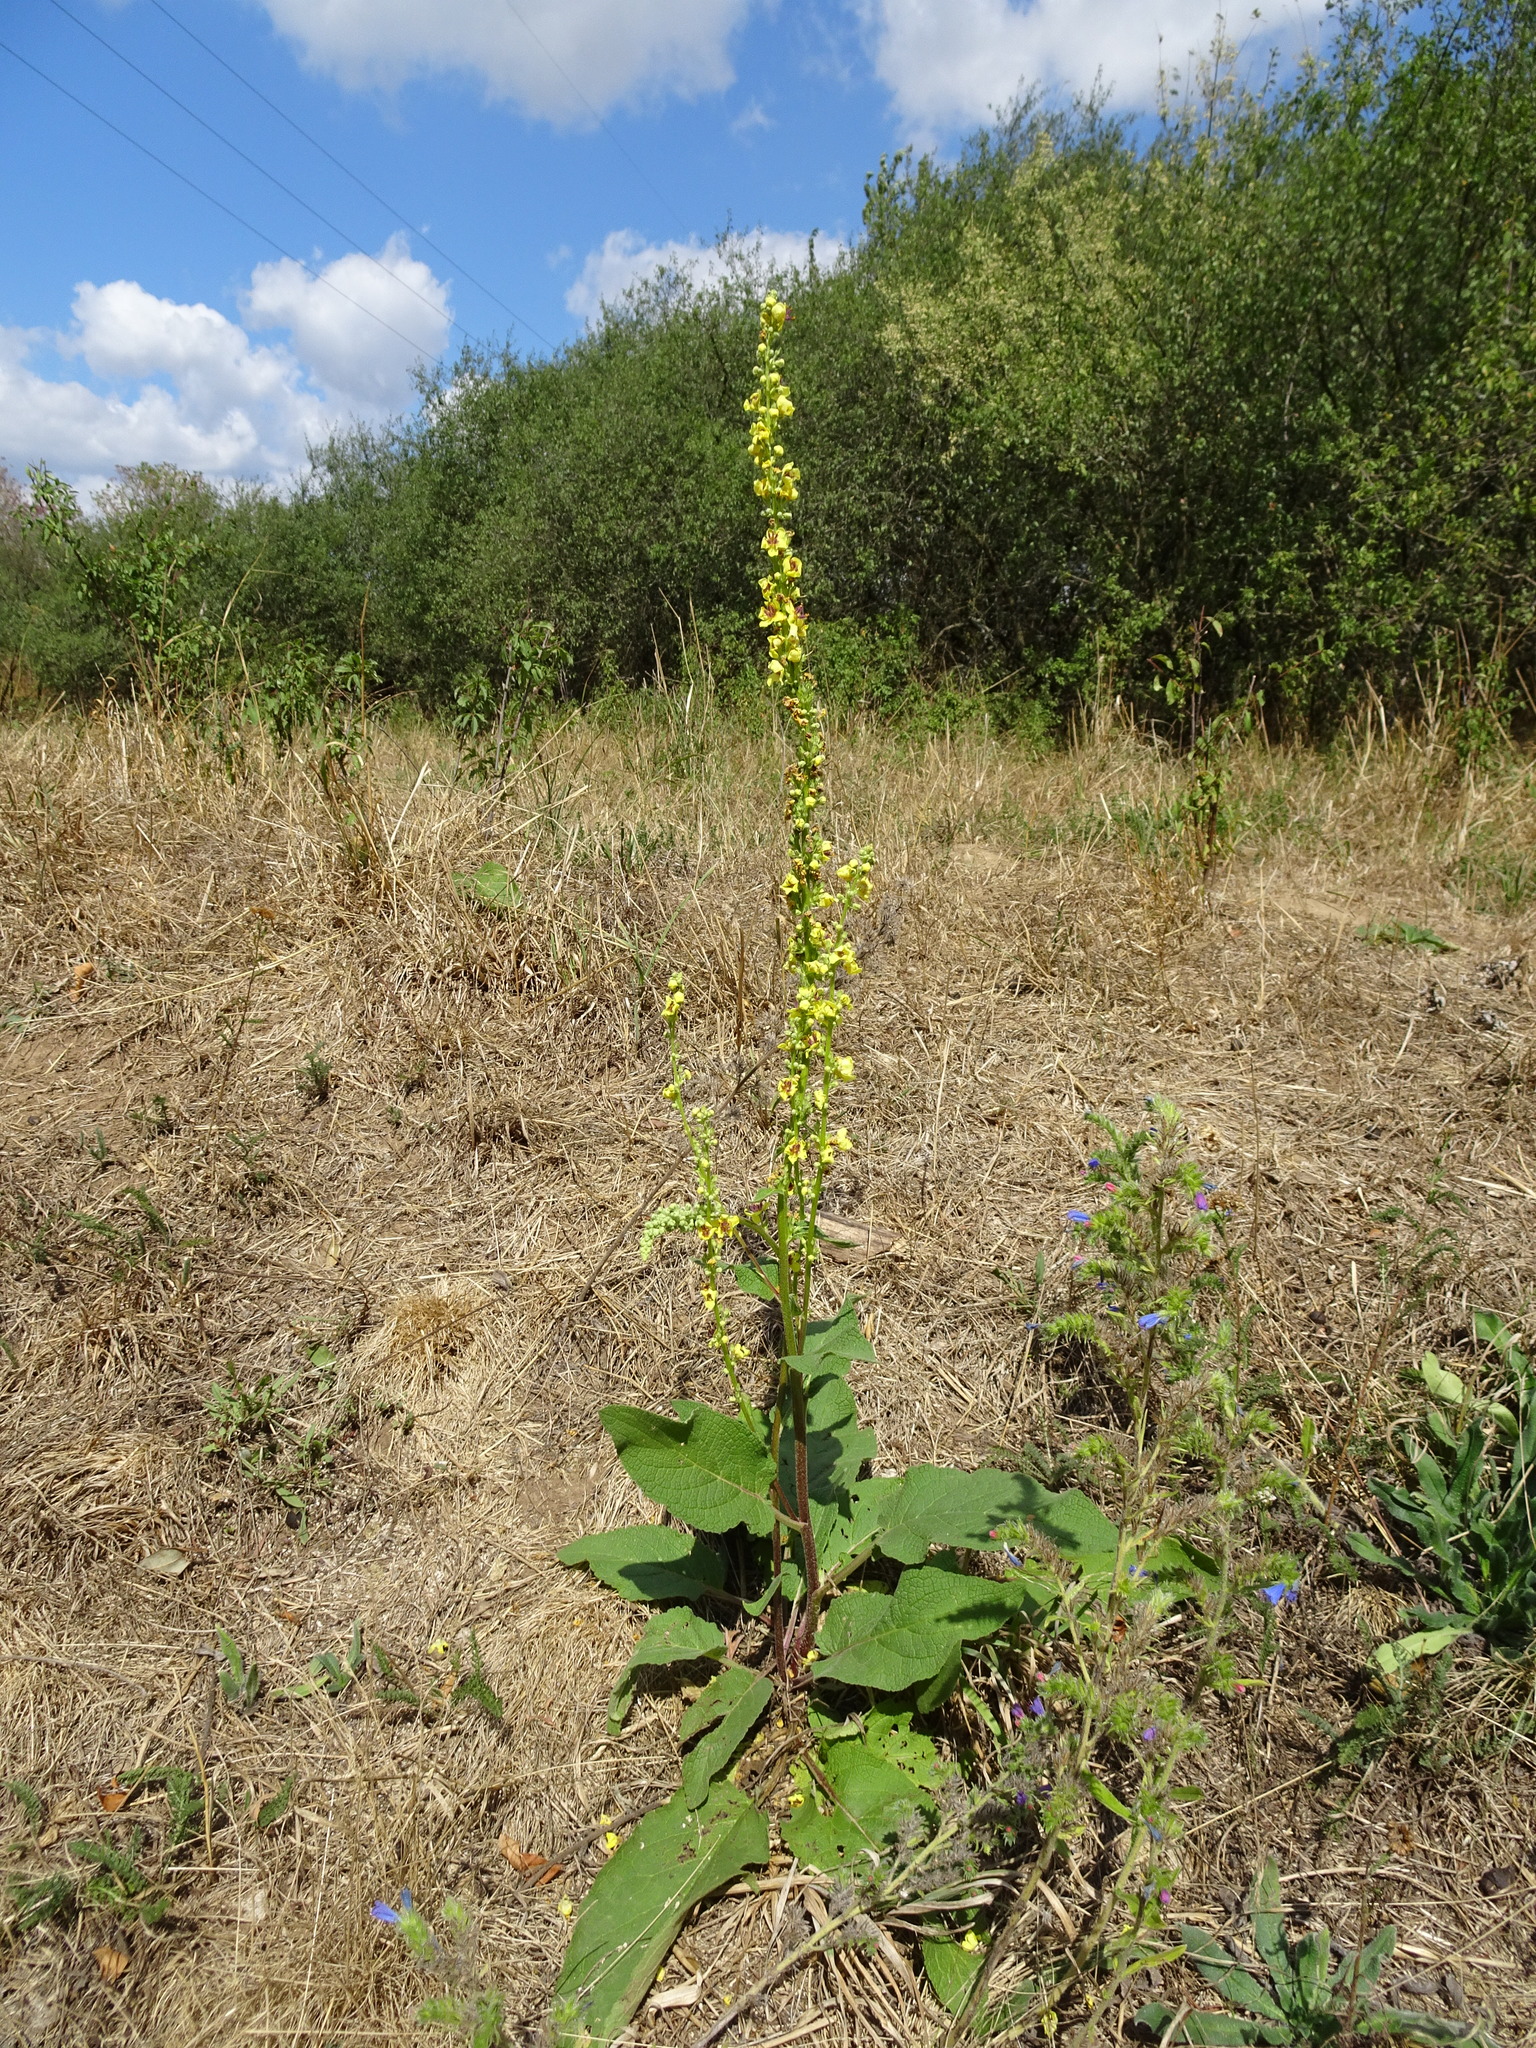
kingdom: Plantae
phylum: Tracheophyta
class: Magnoliopsida
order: Lamiales
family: Scrophulariaceae
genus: Verbascum
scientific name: Verbascum nigrum
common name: Dark mullein
